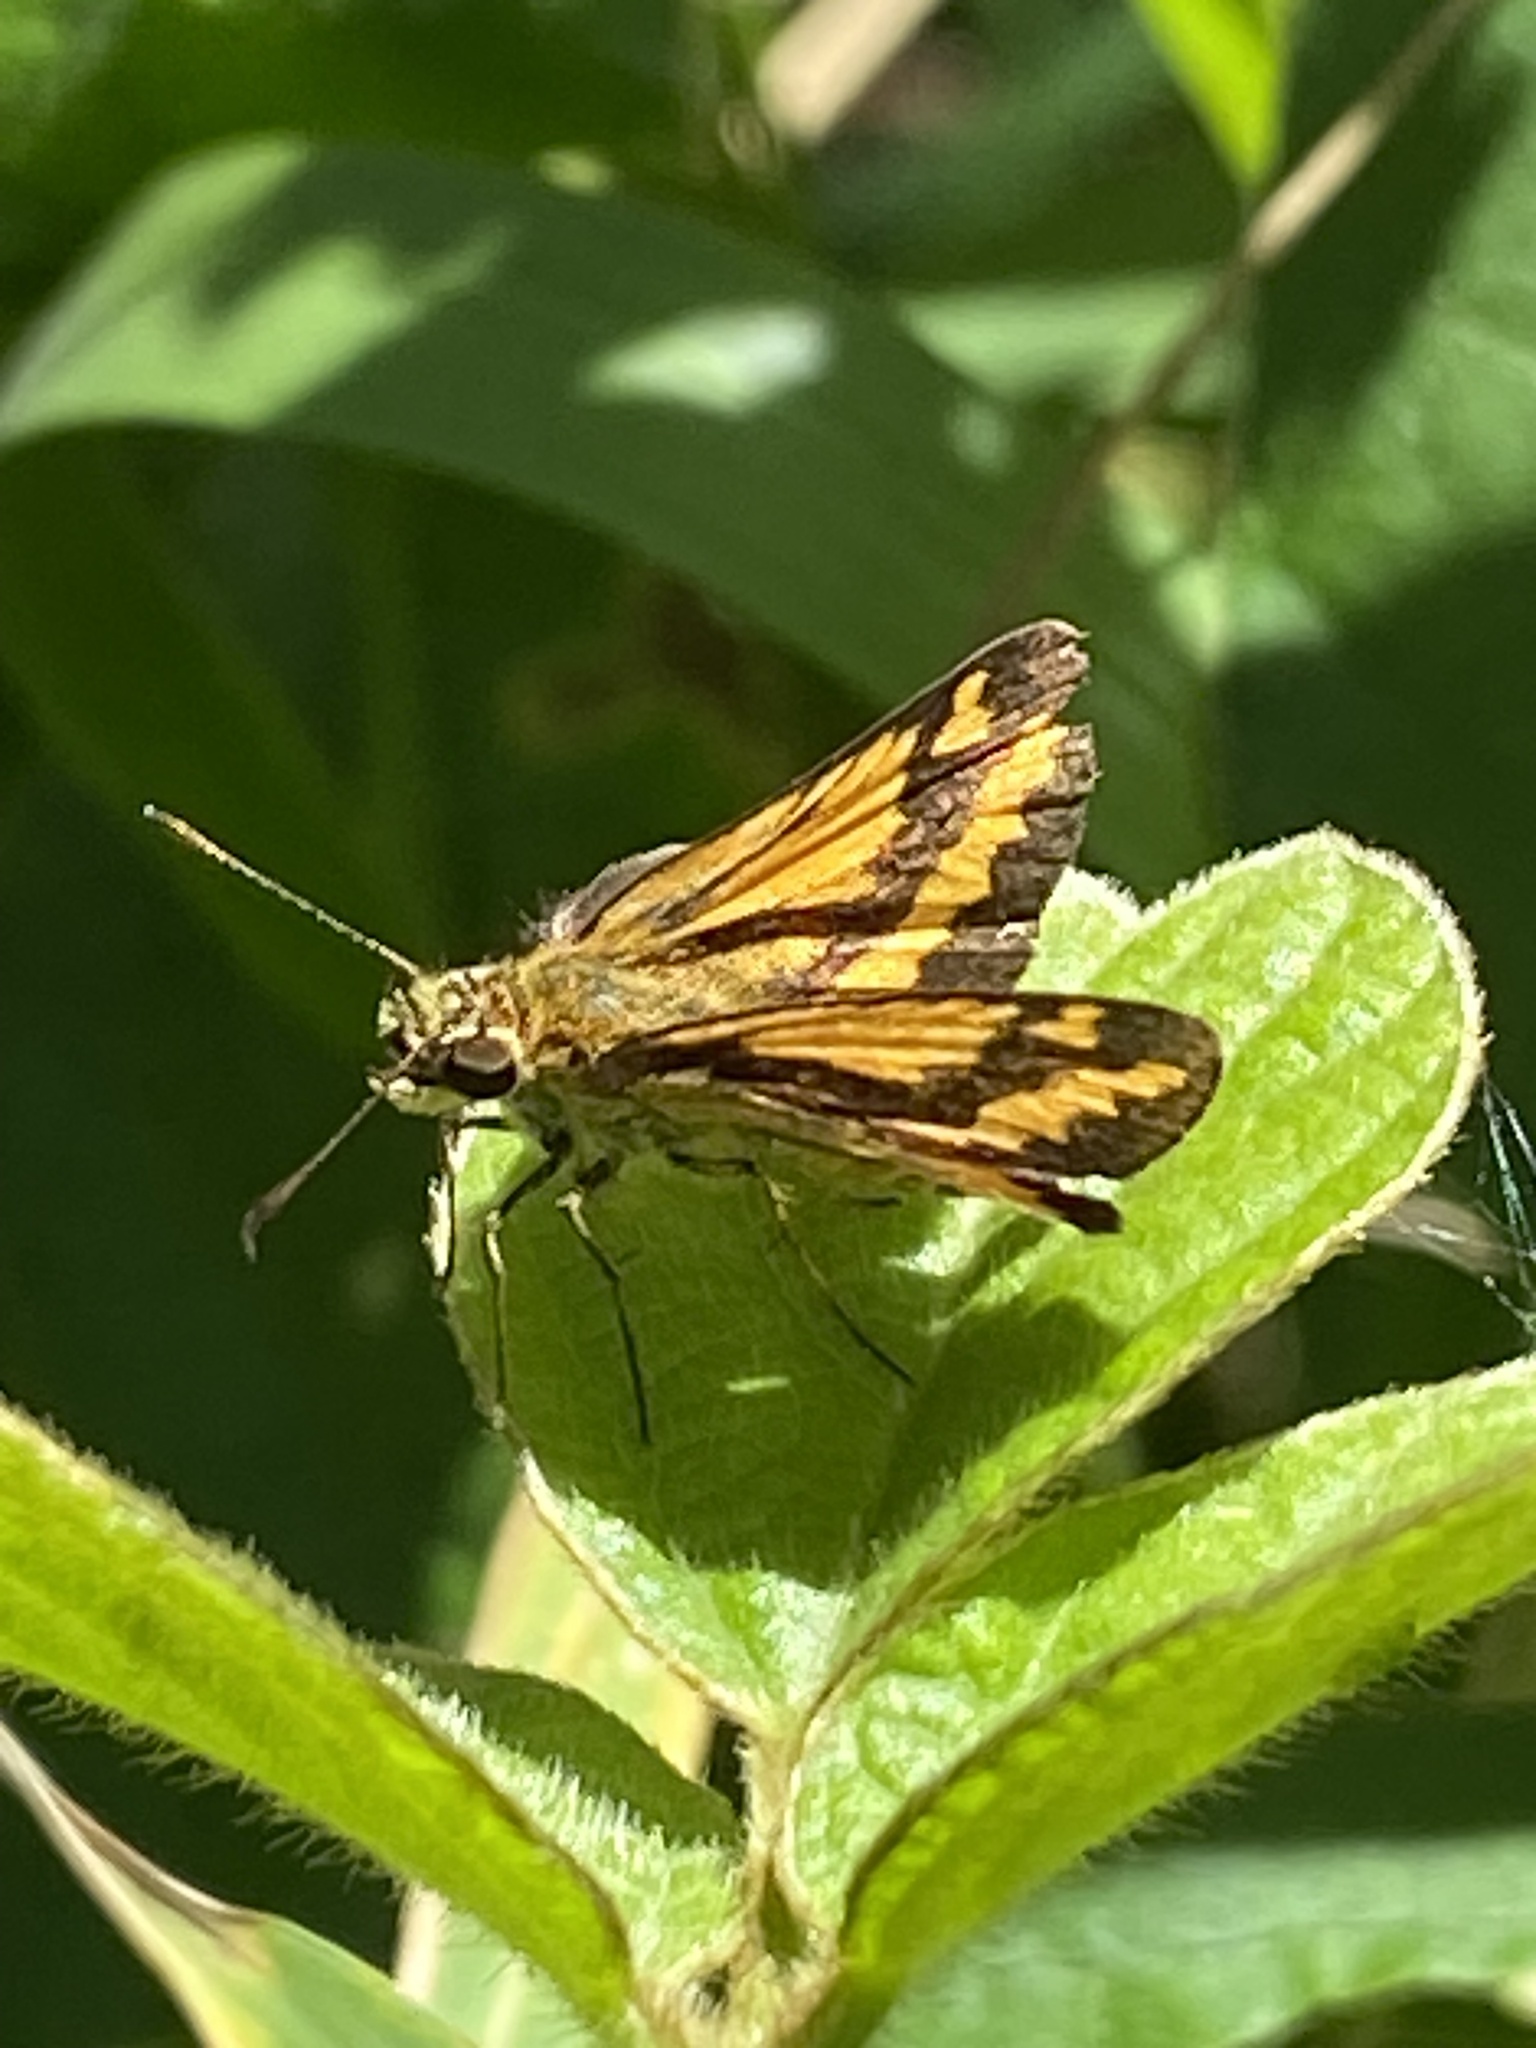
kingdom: Animalia
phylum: Arthropoda
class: Insecta
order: Lepidoptera
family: Hesperiidae
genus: Suniana
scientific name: Suniana sunias
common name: Wide-brand grass-dart
